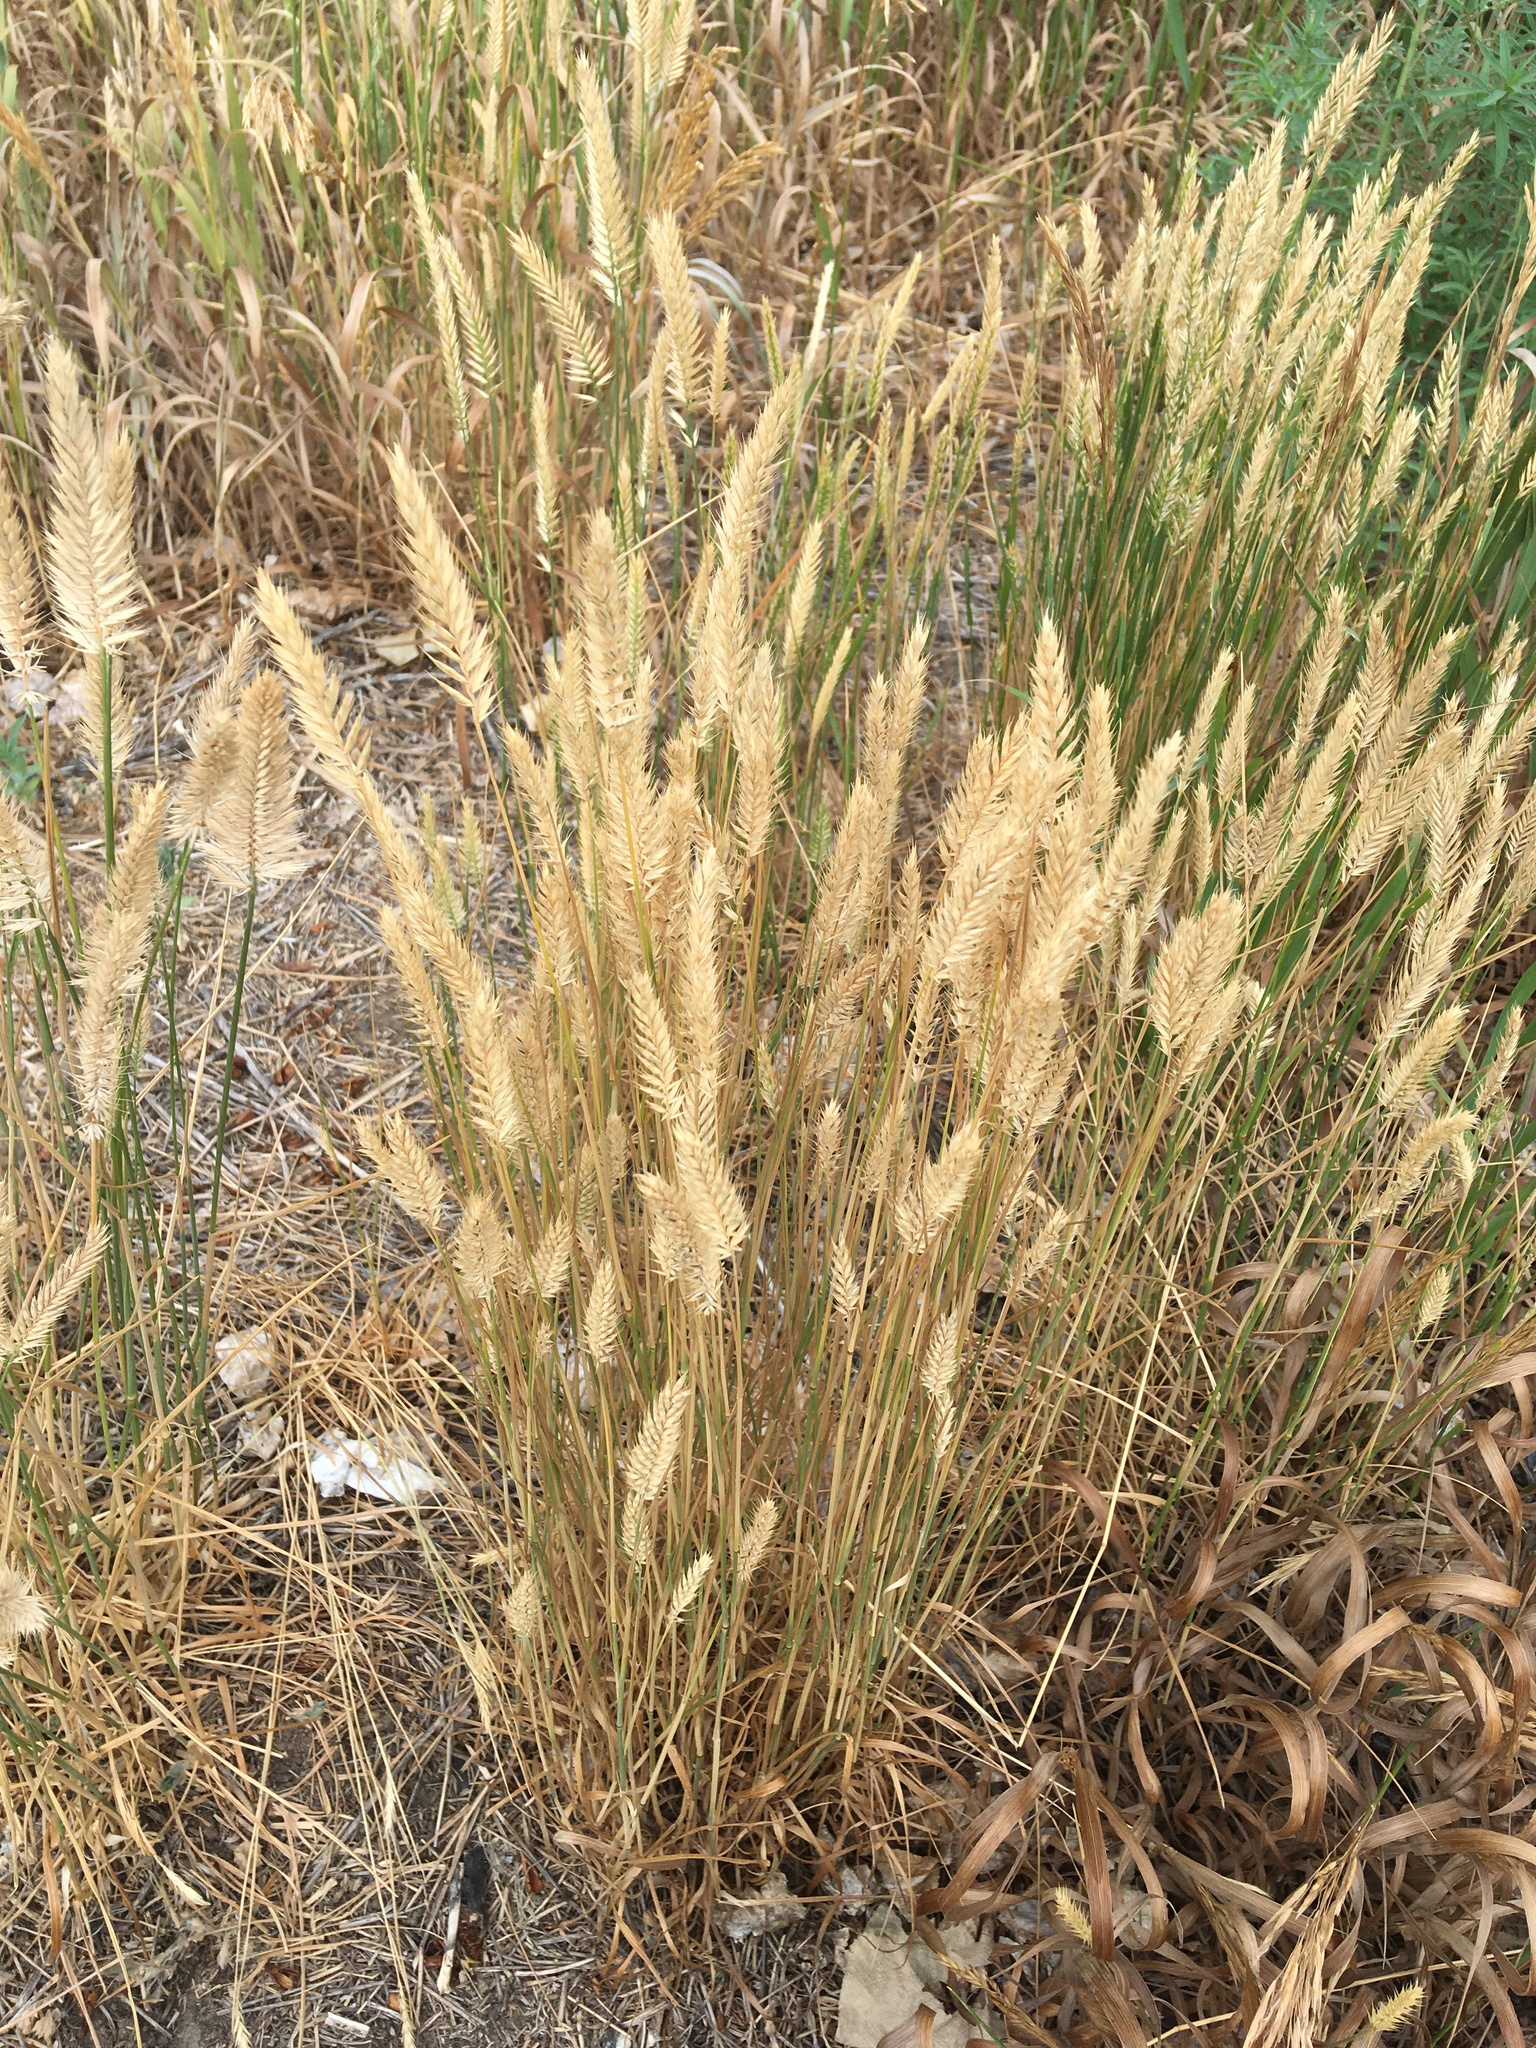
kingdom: Plantae
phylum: Tracheophyta
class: Liliopsida
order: Poales
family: Poaceae
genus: Agropyron
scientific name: Agropyron cristatum
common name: Crested wheatgrass
